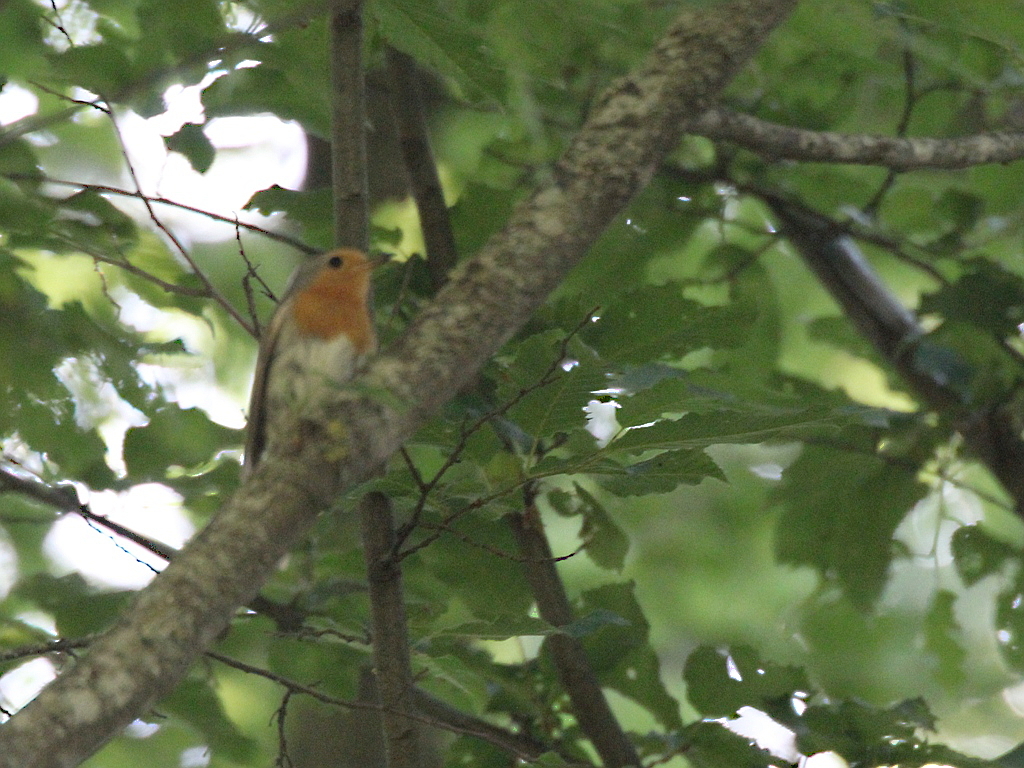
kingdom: Animalia
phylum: Chordata
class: Aves
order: Passeriformes
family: Muscicapidae
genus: Erithacus
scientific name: Erithacus rubecula
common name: European robin
